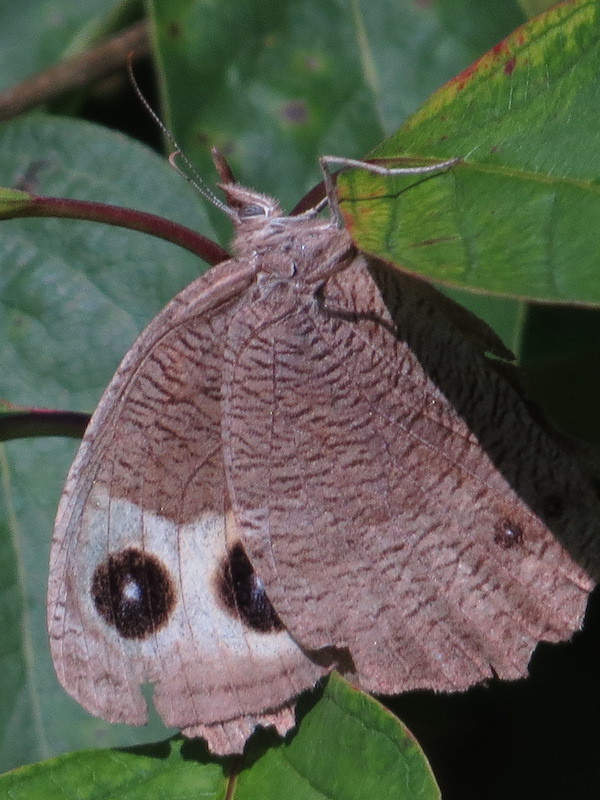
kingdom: Animalia
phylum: Arthropoda
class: Insecta
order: Lepidoptera
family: Nymphalidae
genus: Cercyonis
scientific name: Cercyonis pegala
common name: Common wood-nymph
